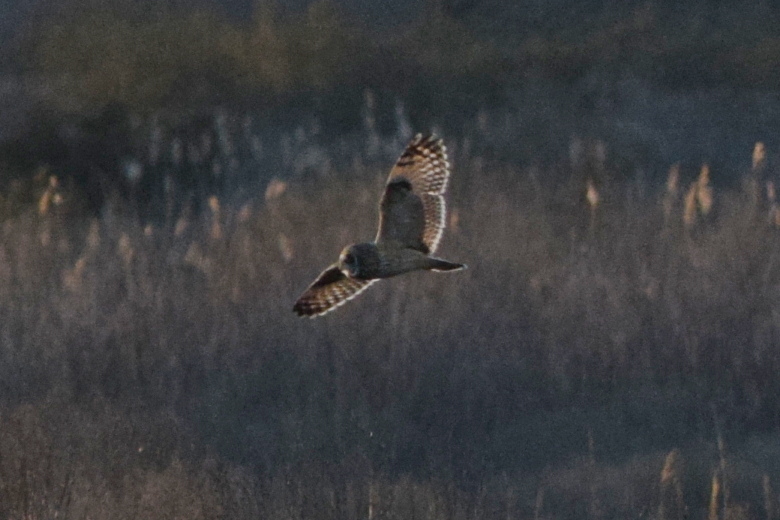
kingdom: Animalia
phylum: Chordata
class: Aves
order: Strigiformes
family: Strigidae
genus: Asio
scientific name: Asio flammeus
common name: Short-eared owl
